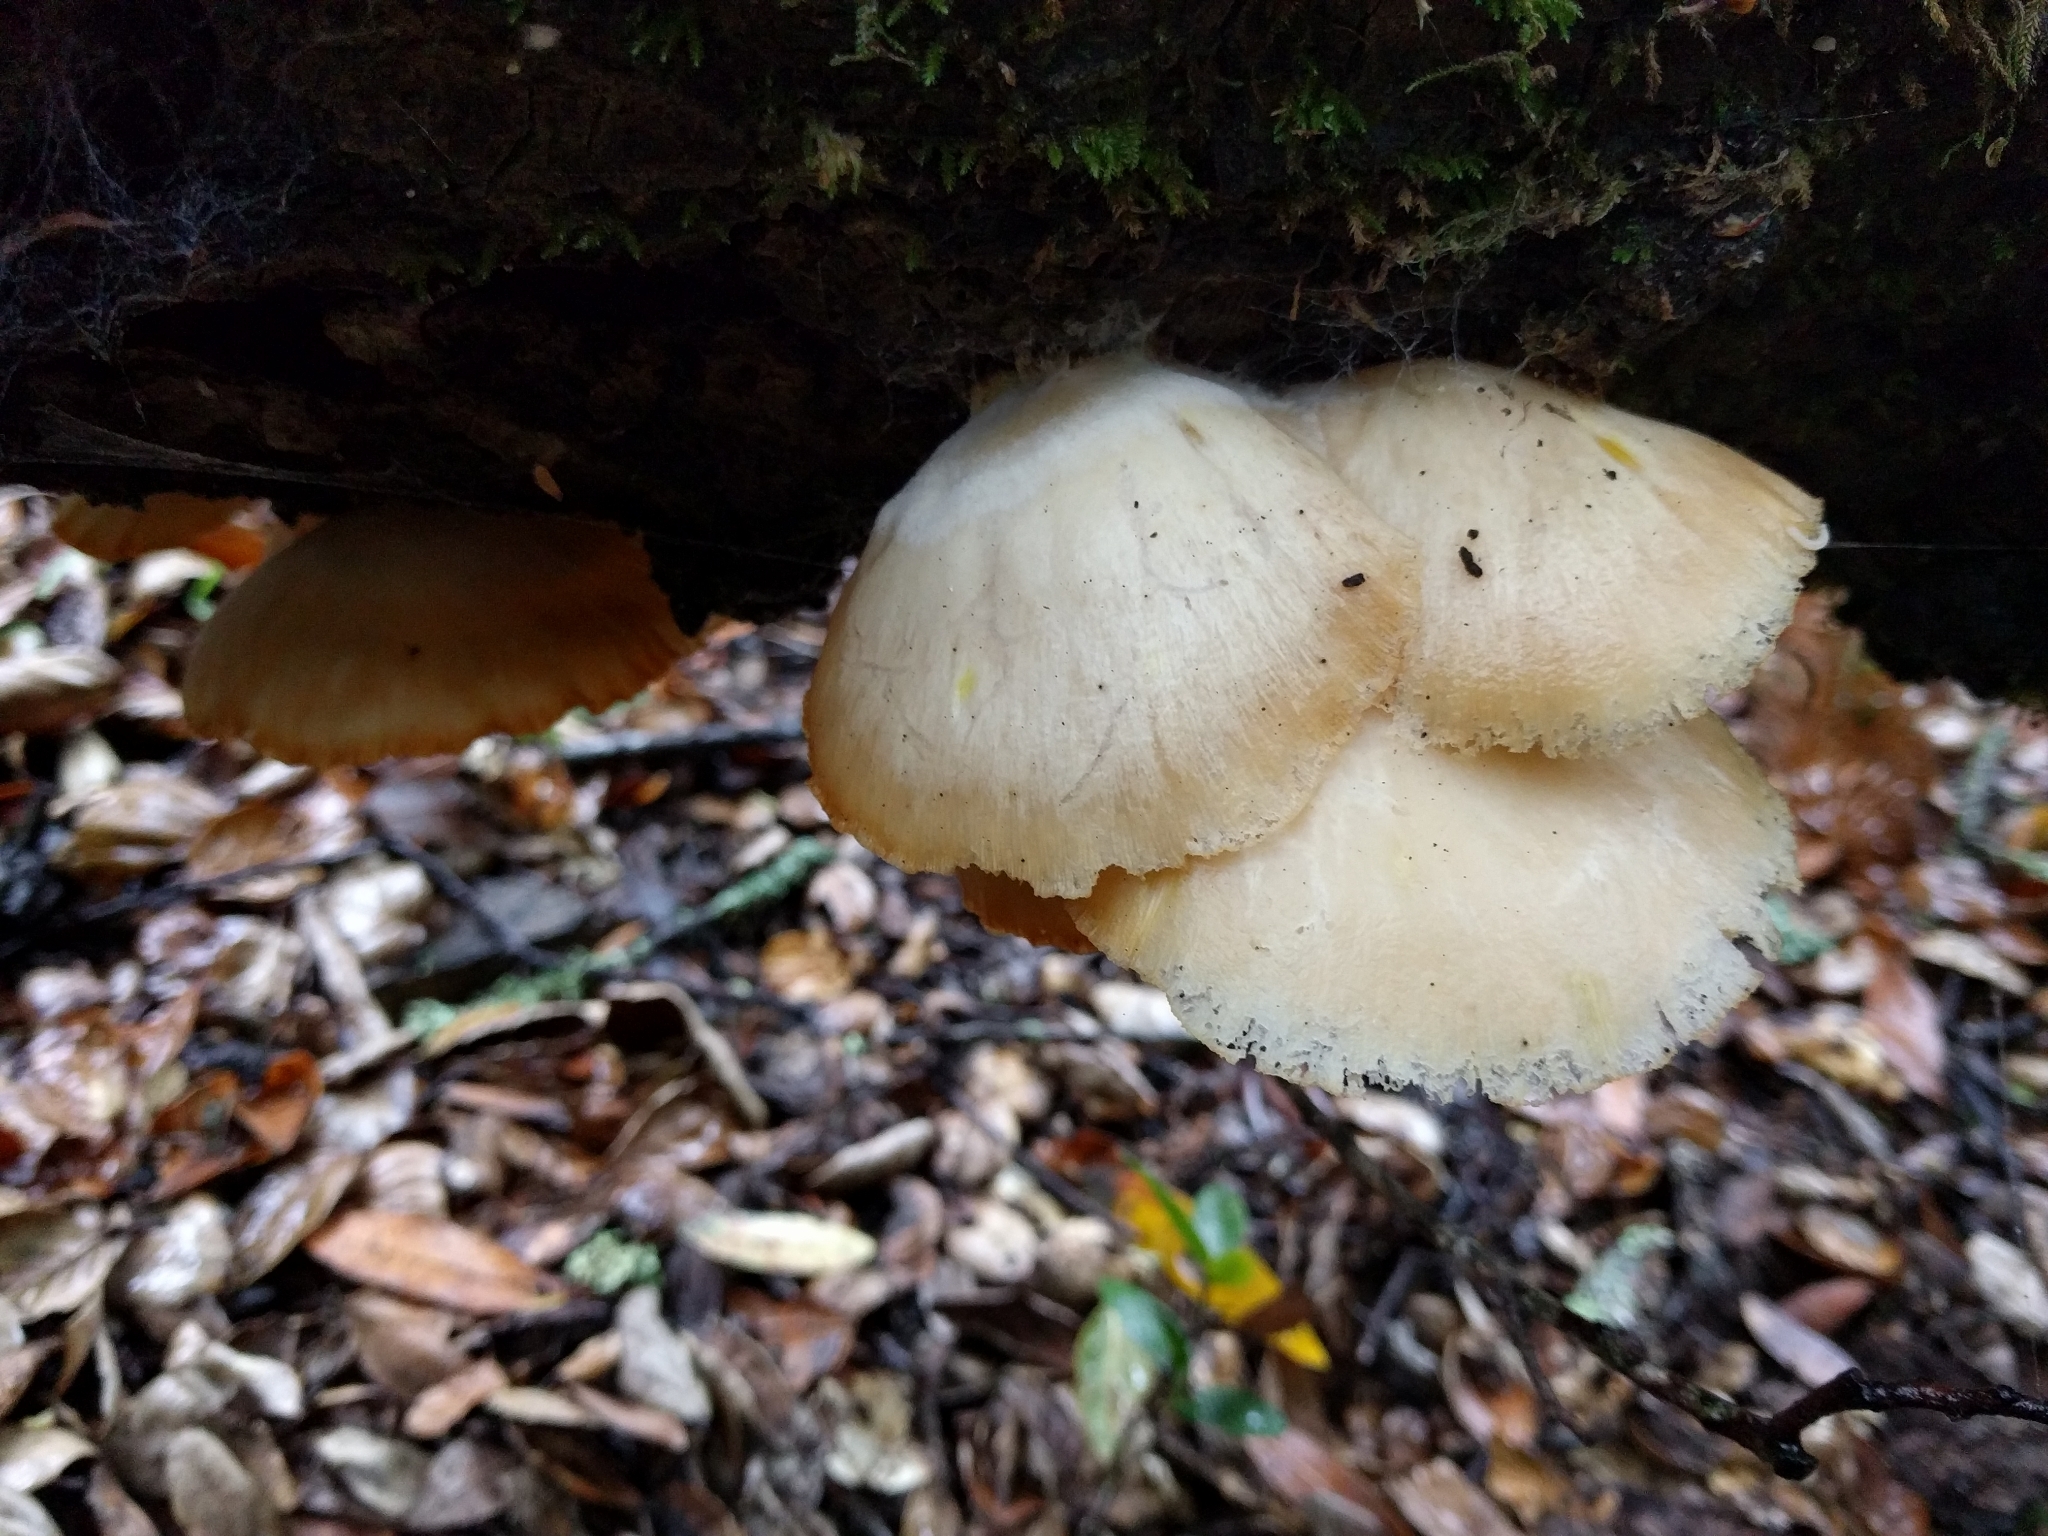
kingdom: Fungi
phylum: Basidiomycota
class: Agaricomycetes
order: Agaricales
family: Pleurotaceae
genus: Pleurotus
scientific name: Pleurotus ostreatus
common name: Oyster mushroom
